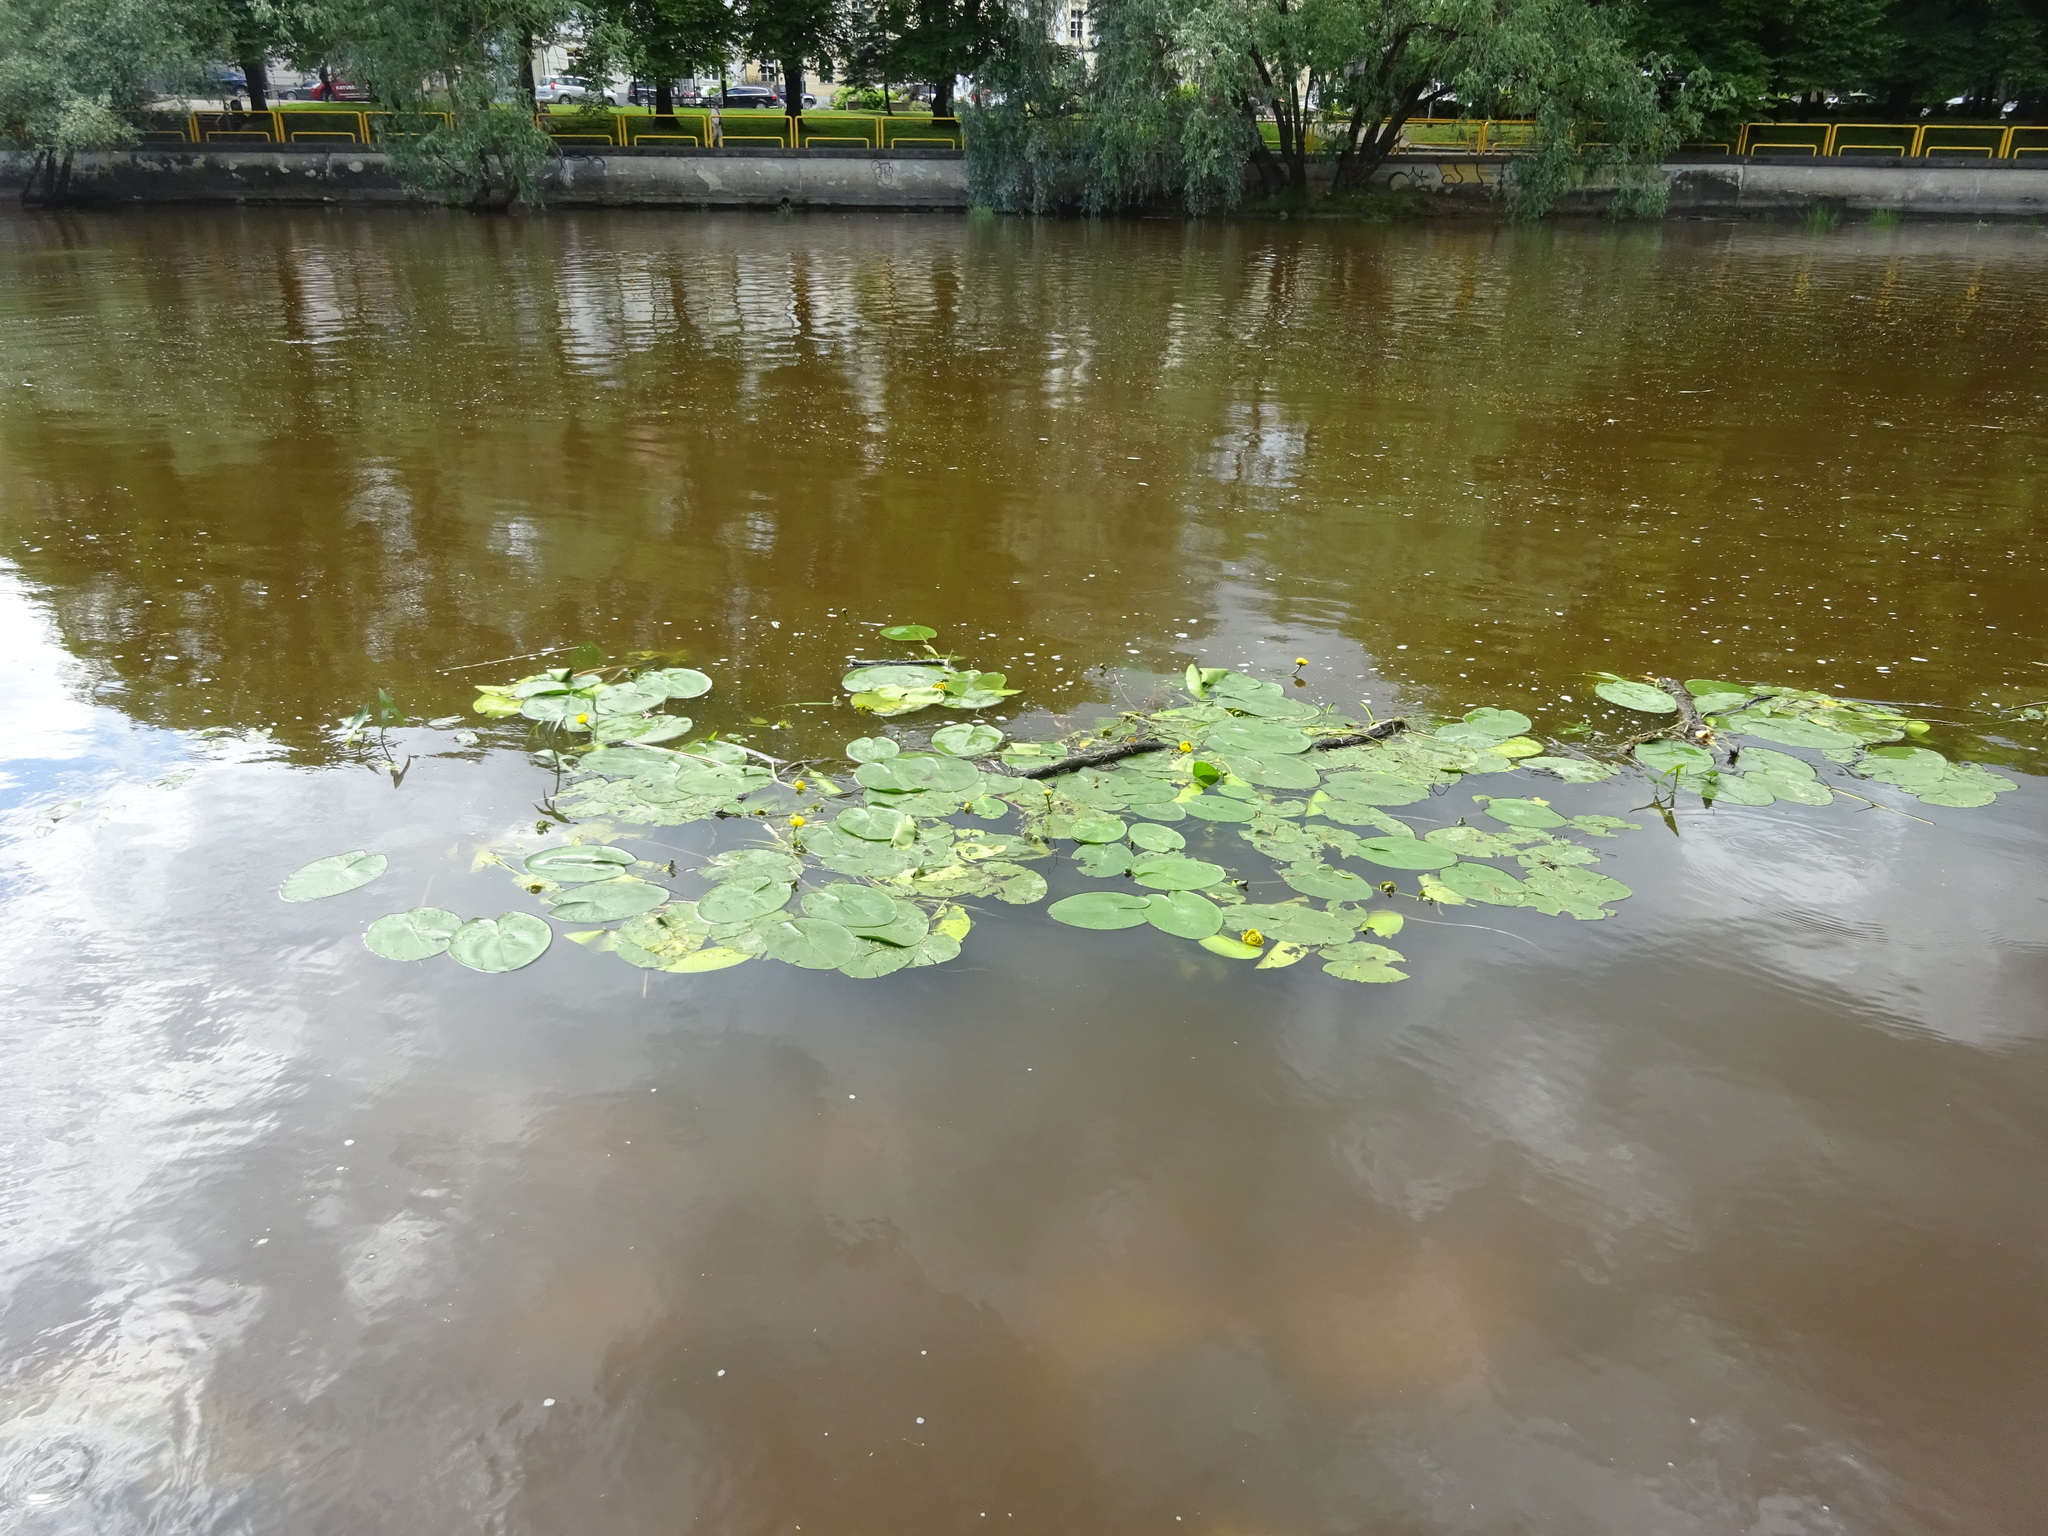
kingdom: Plantae
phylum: Tracheophyta
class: Magnoliopsida
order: Nymphaeales
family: Nymphaeaceae
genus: Nuphar
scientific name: Nuphar lutea
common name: Yellow water-lily
